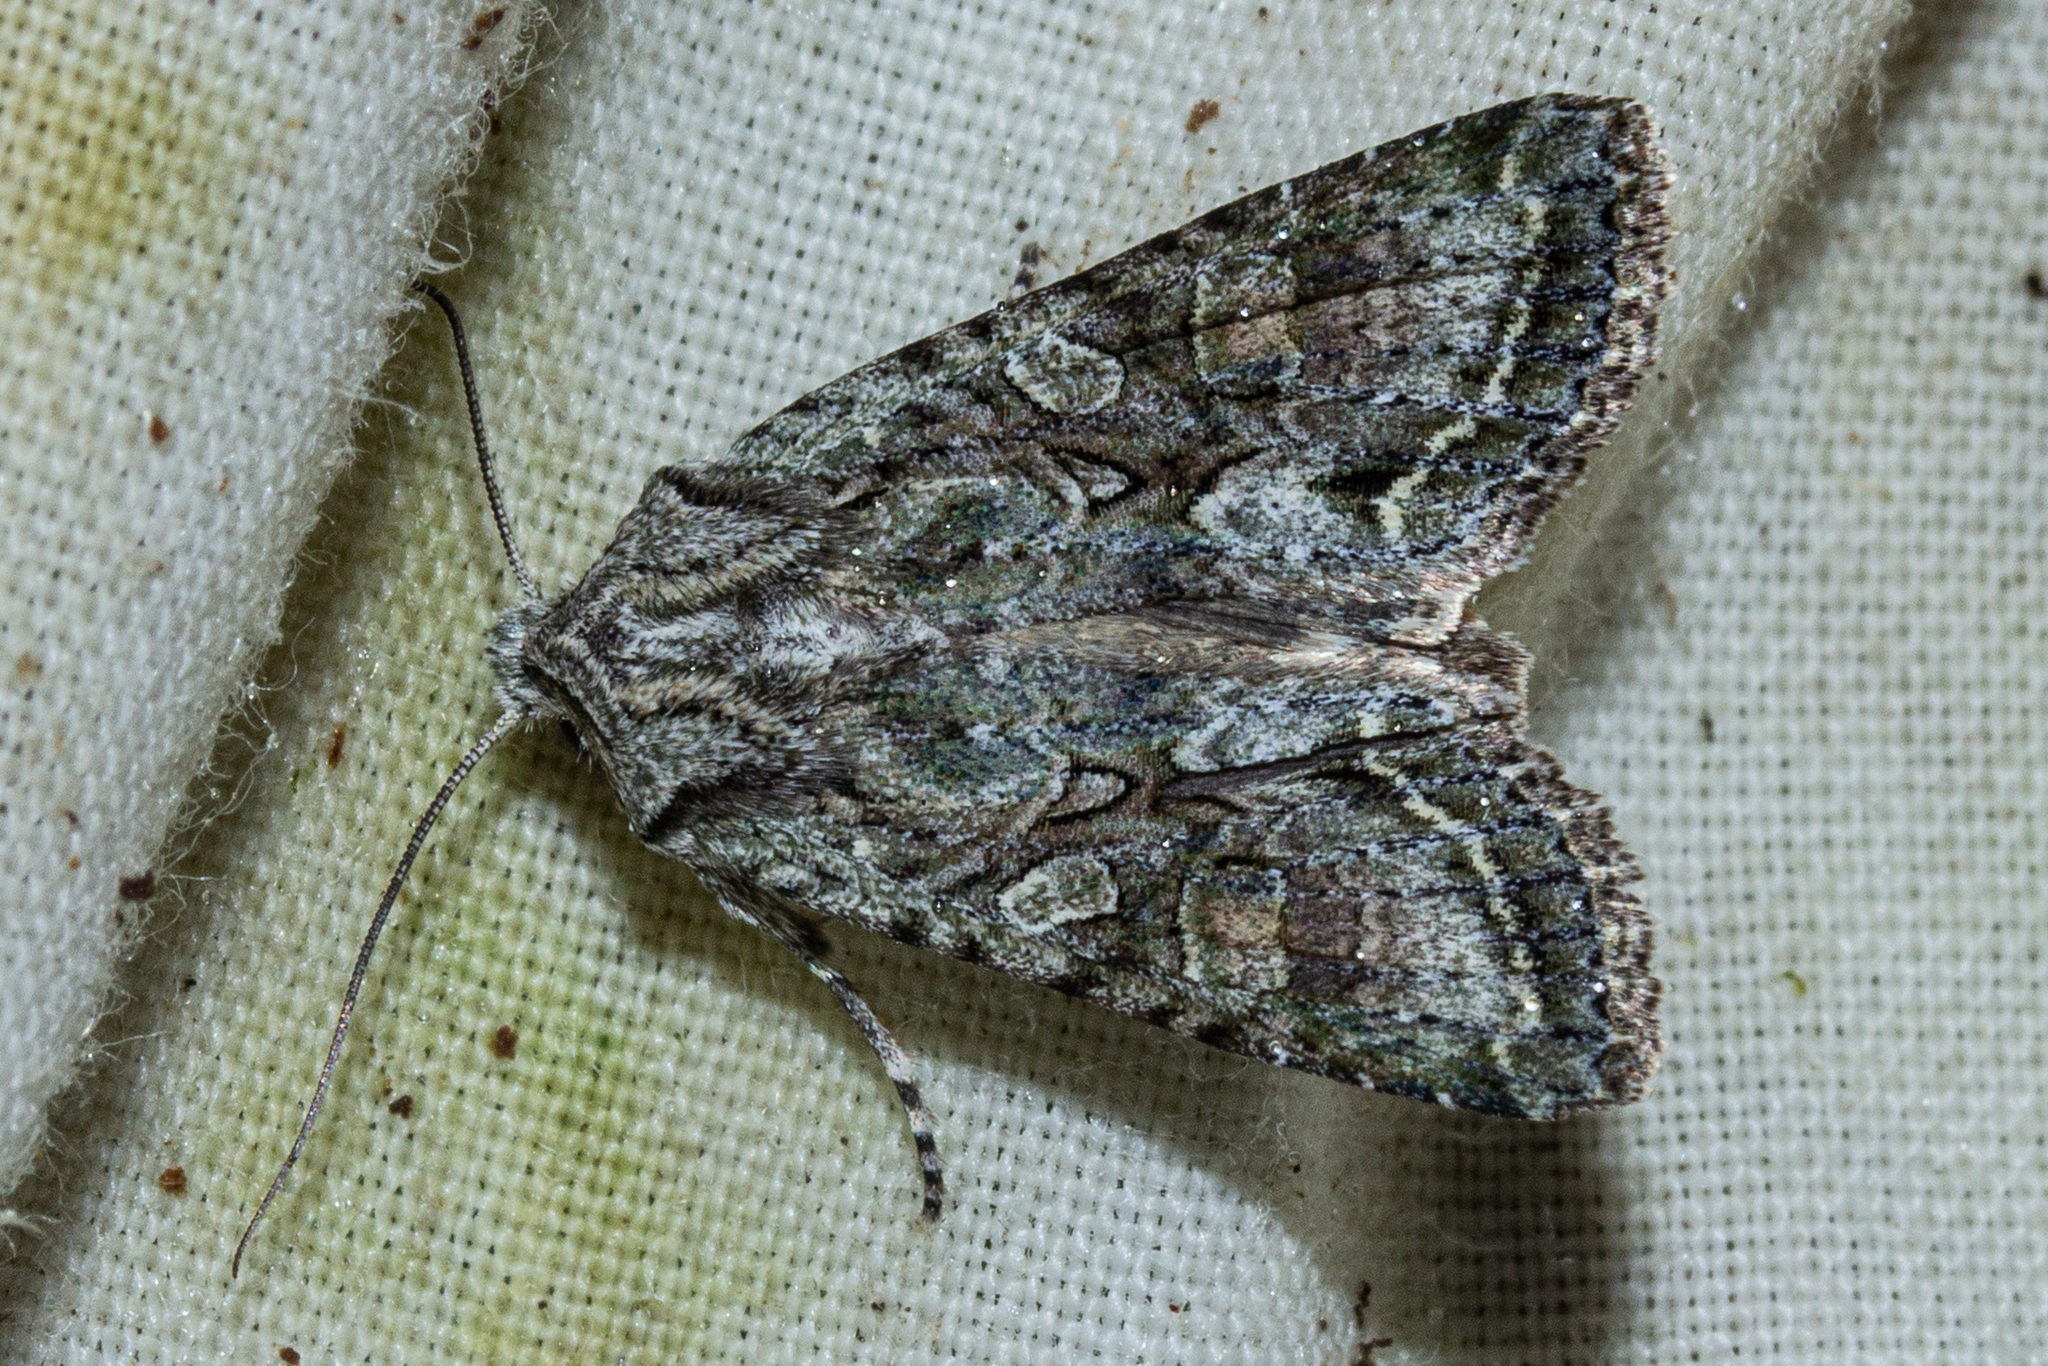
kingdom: Animalia
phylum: Arthropoda
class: Insecta
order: Lepidoptera
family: Noctuidae
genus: Ichneutica
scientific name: Ichneutica mutans
